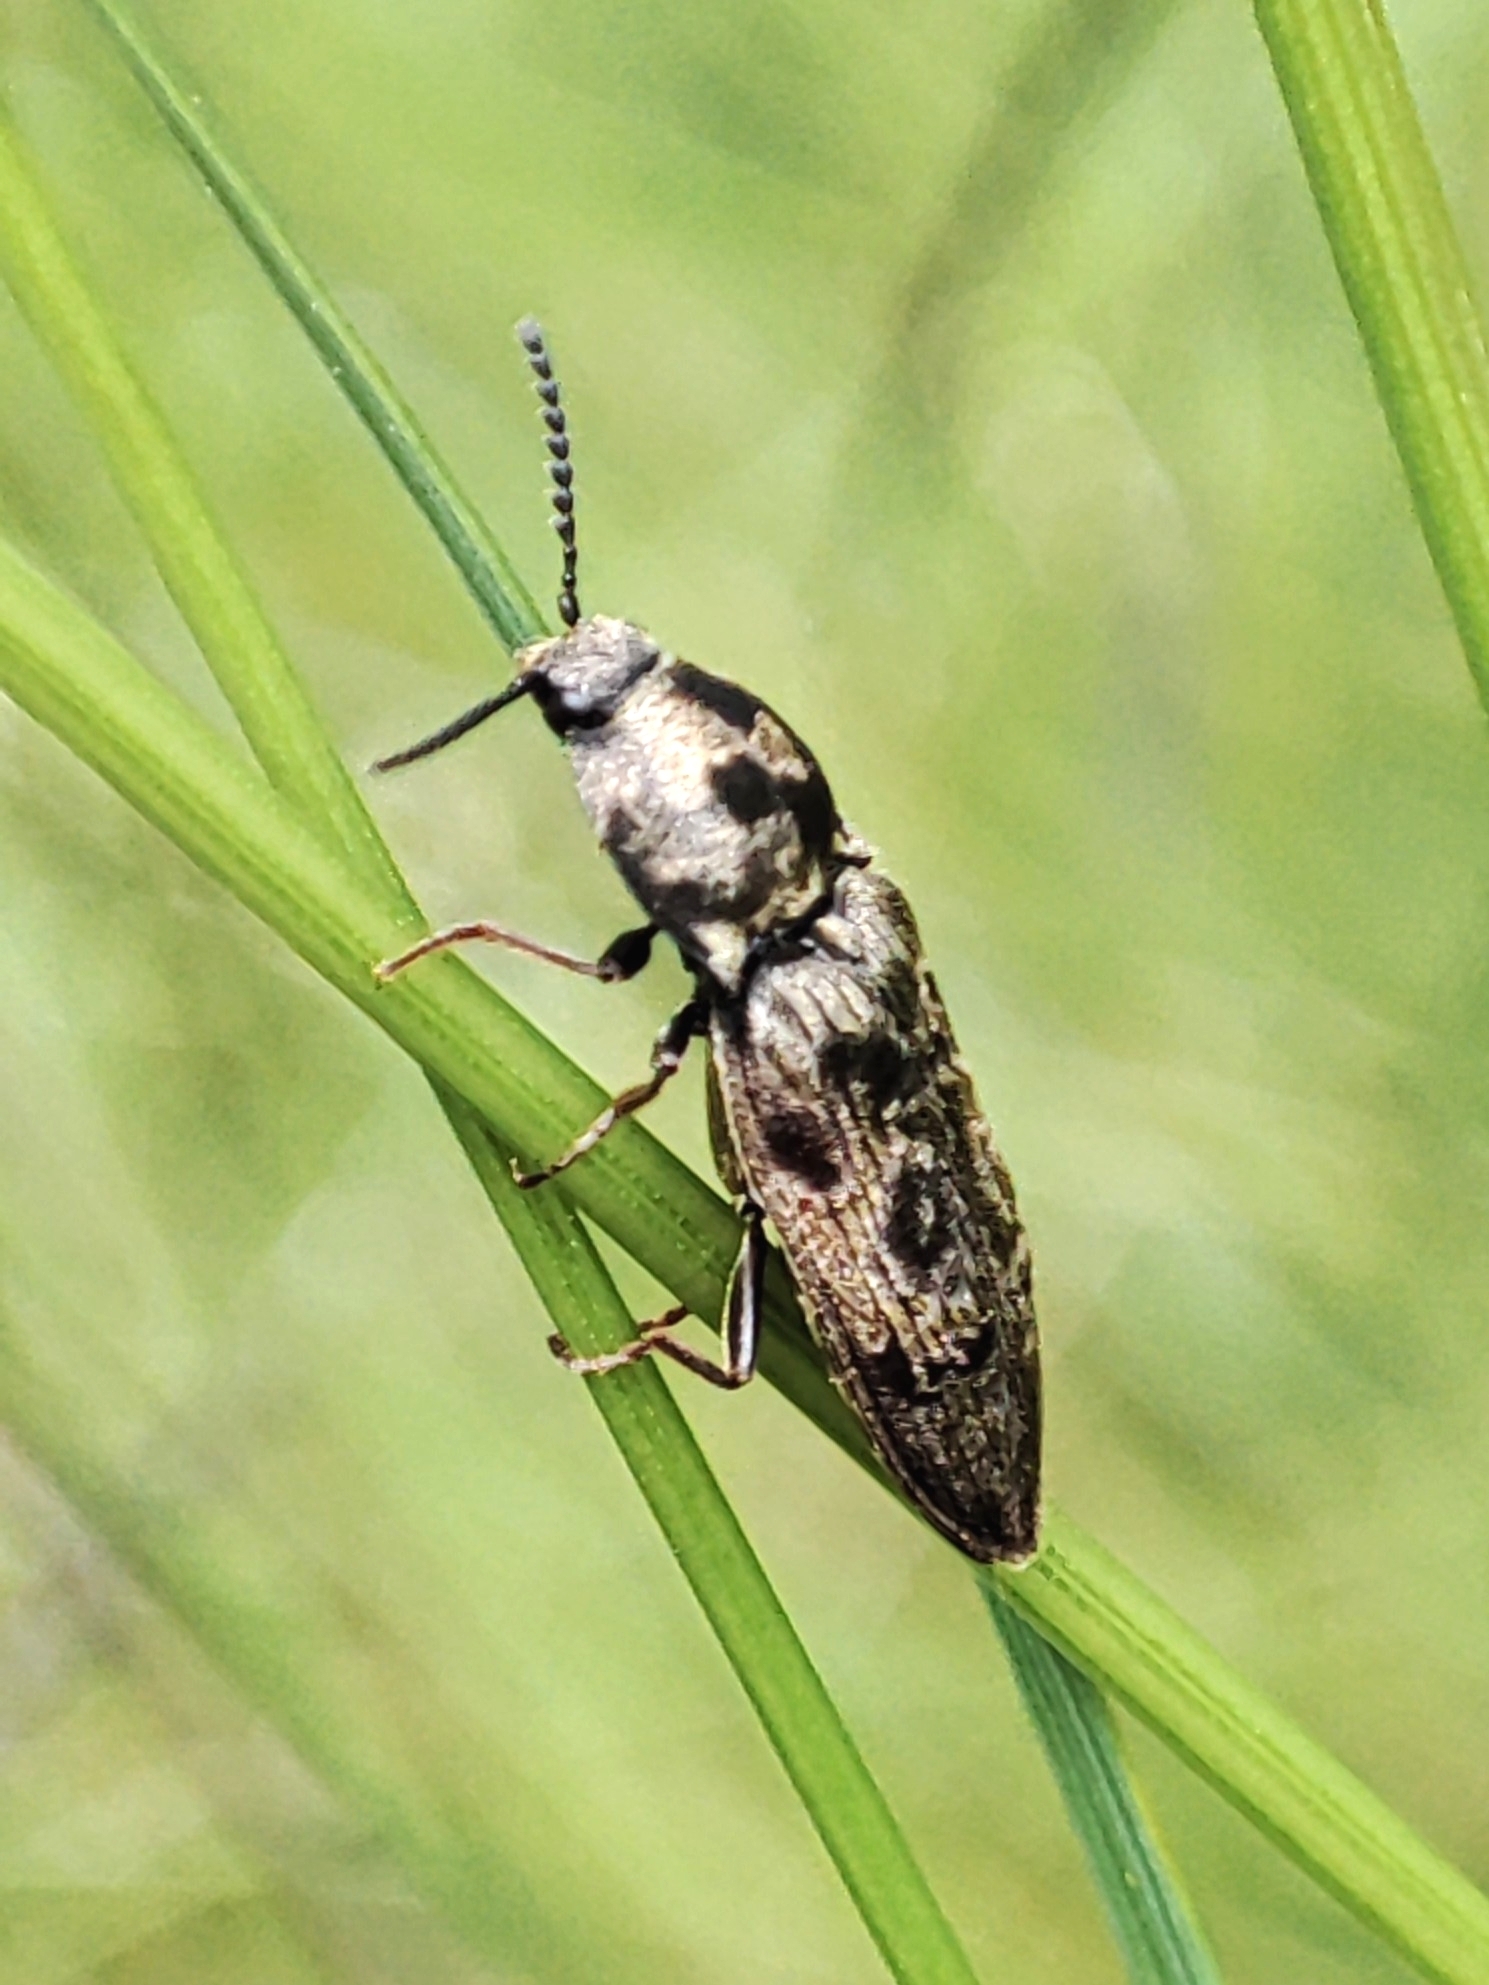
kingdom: Animalia
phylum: Arthropoda
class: Insecta
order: Coleoptera
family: Elateridae
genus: Prosternon
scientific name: Prosternon tessellatum
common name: Chequered click beetle
